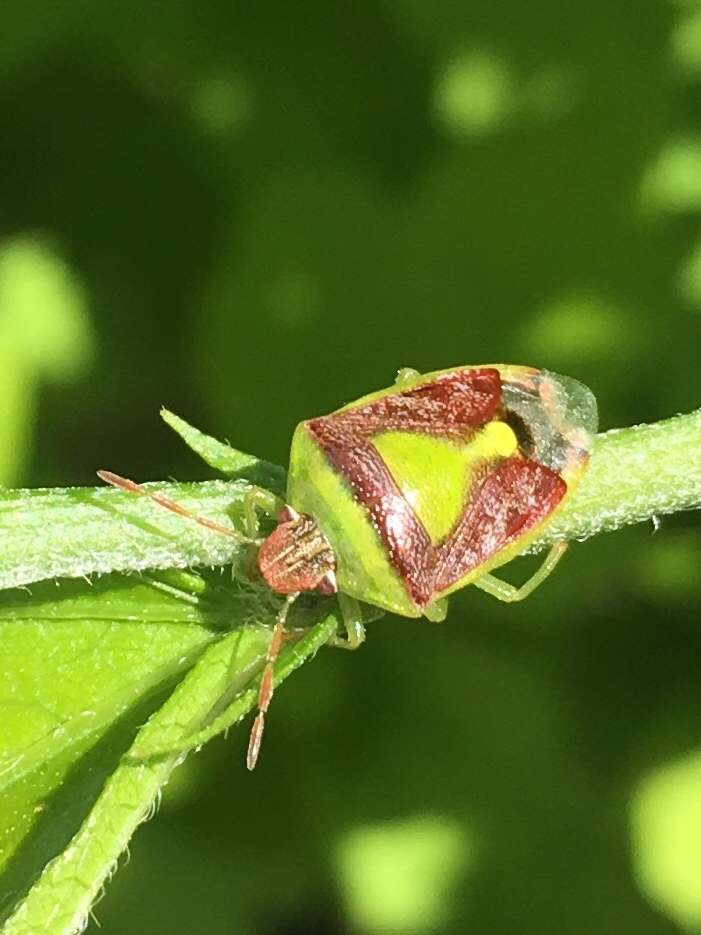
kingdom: Animalia
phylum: Arthropoda
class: Insecta
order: Hemiptera
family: Pentatomidae
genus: Banasa
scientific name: Banasa dimidiata
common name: Green burgundy stink bug
